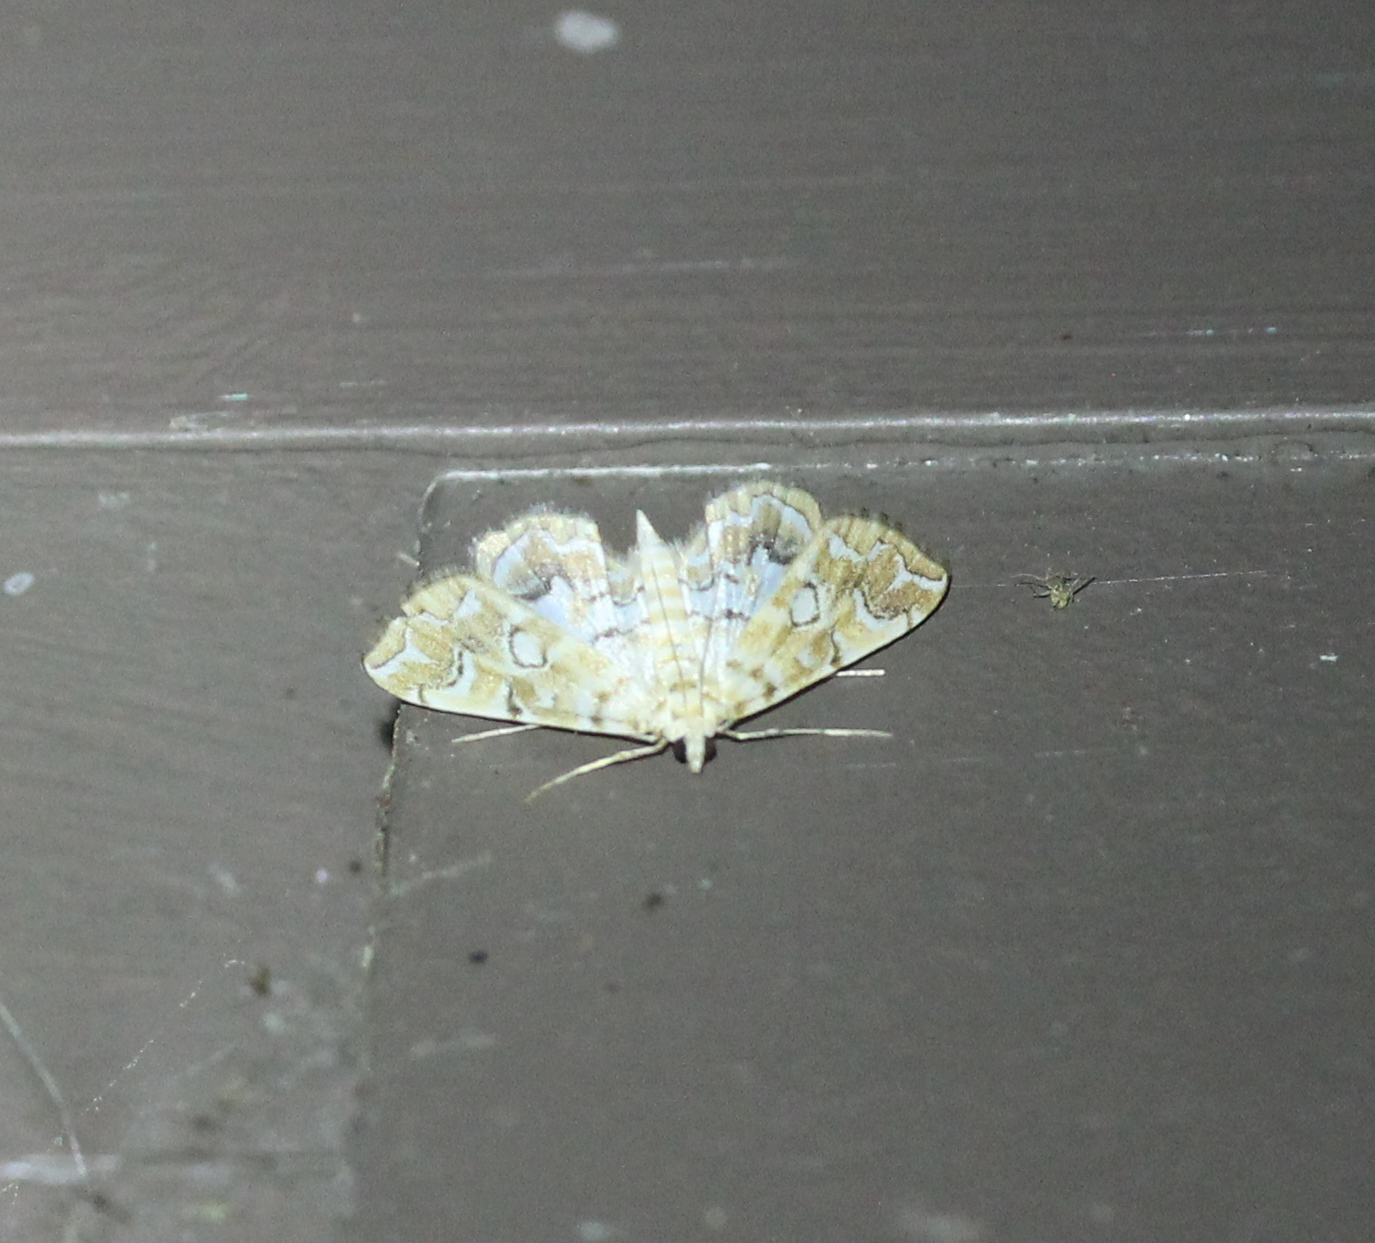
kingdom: Animalia
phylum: Arthropoda
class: Insecta
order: Lepidoptera
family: Crambidae
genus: Elophila
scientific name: Elophila icciusalis
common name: Pondside pyralid moth
